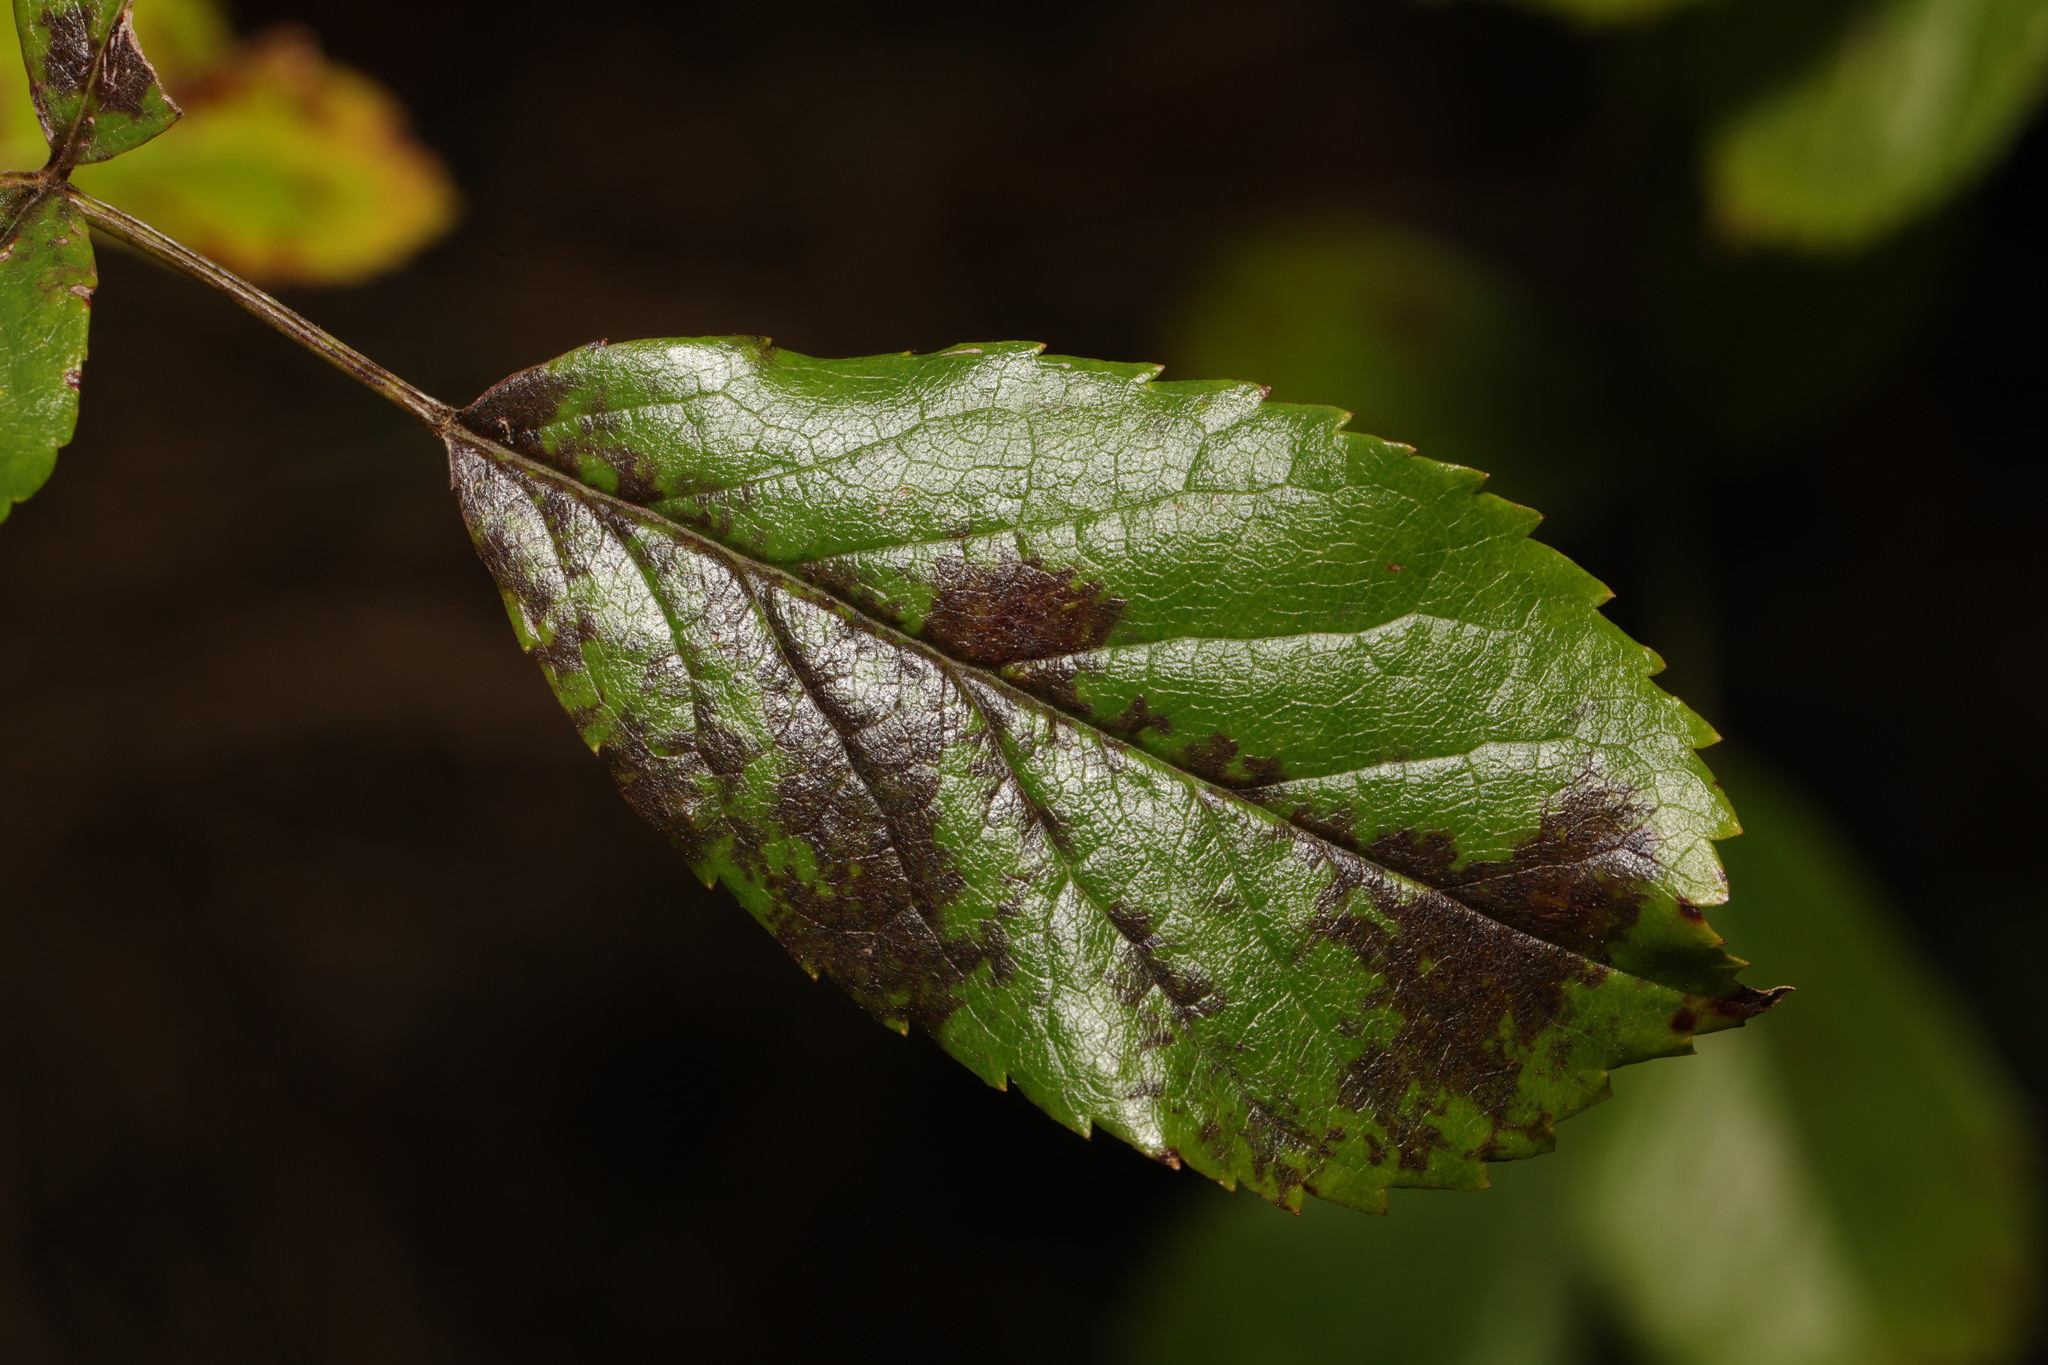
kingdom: Fungi
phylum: Ascomycota
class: Leotiomycetes
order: Helotiales
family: Drepanopezizaceae
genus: Diplocarpon
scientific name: Diplocarpon rosae
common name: Rose black-spot
